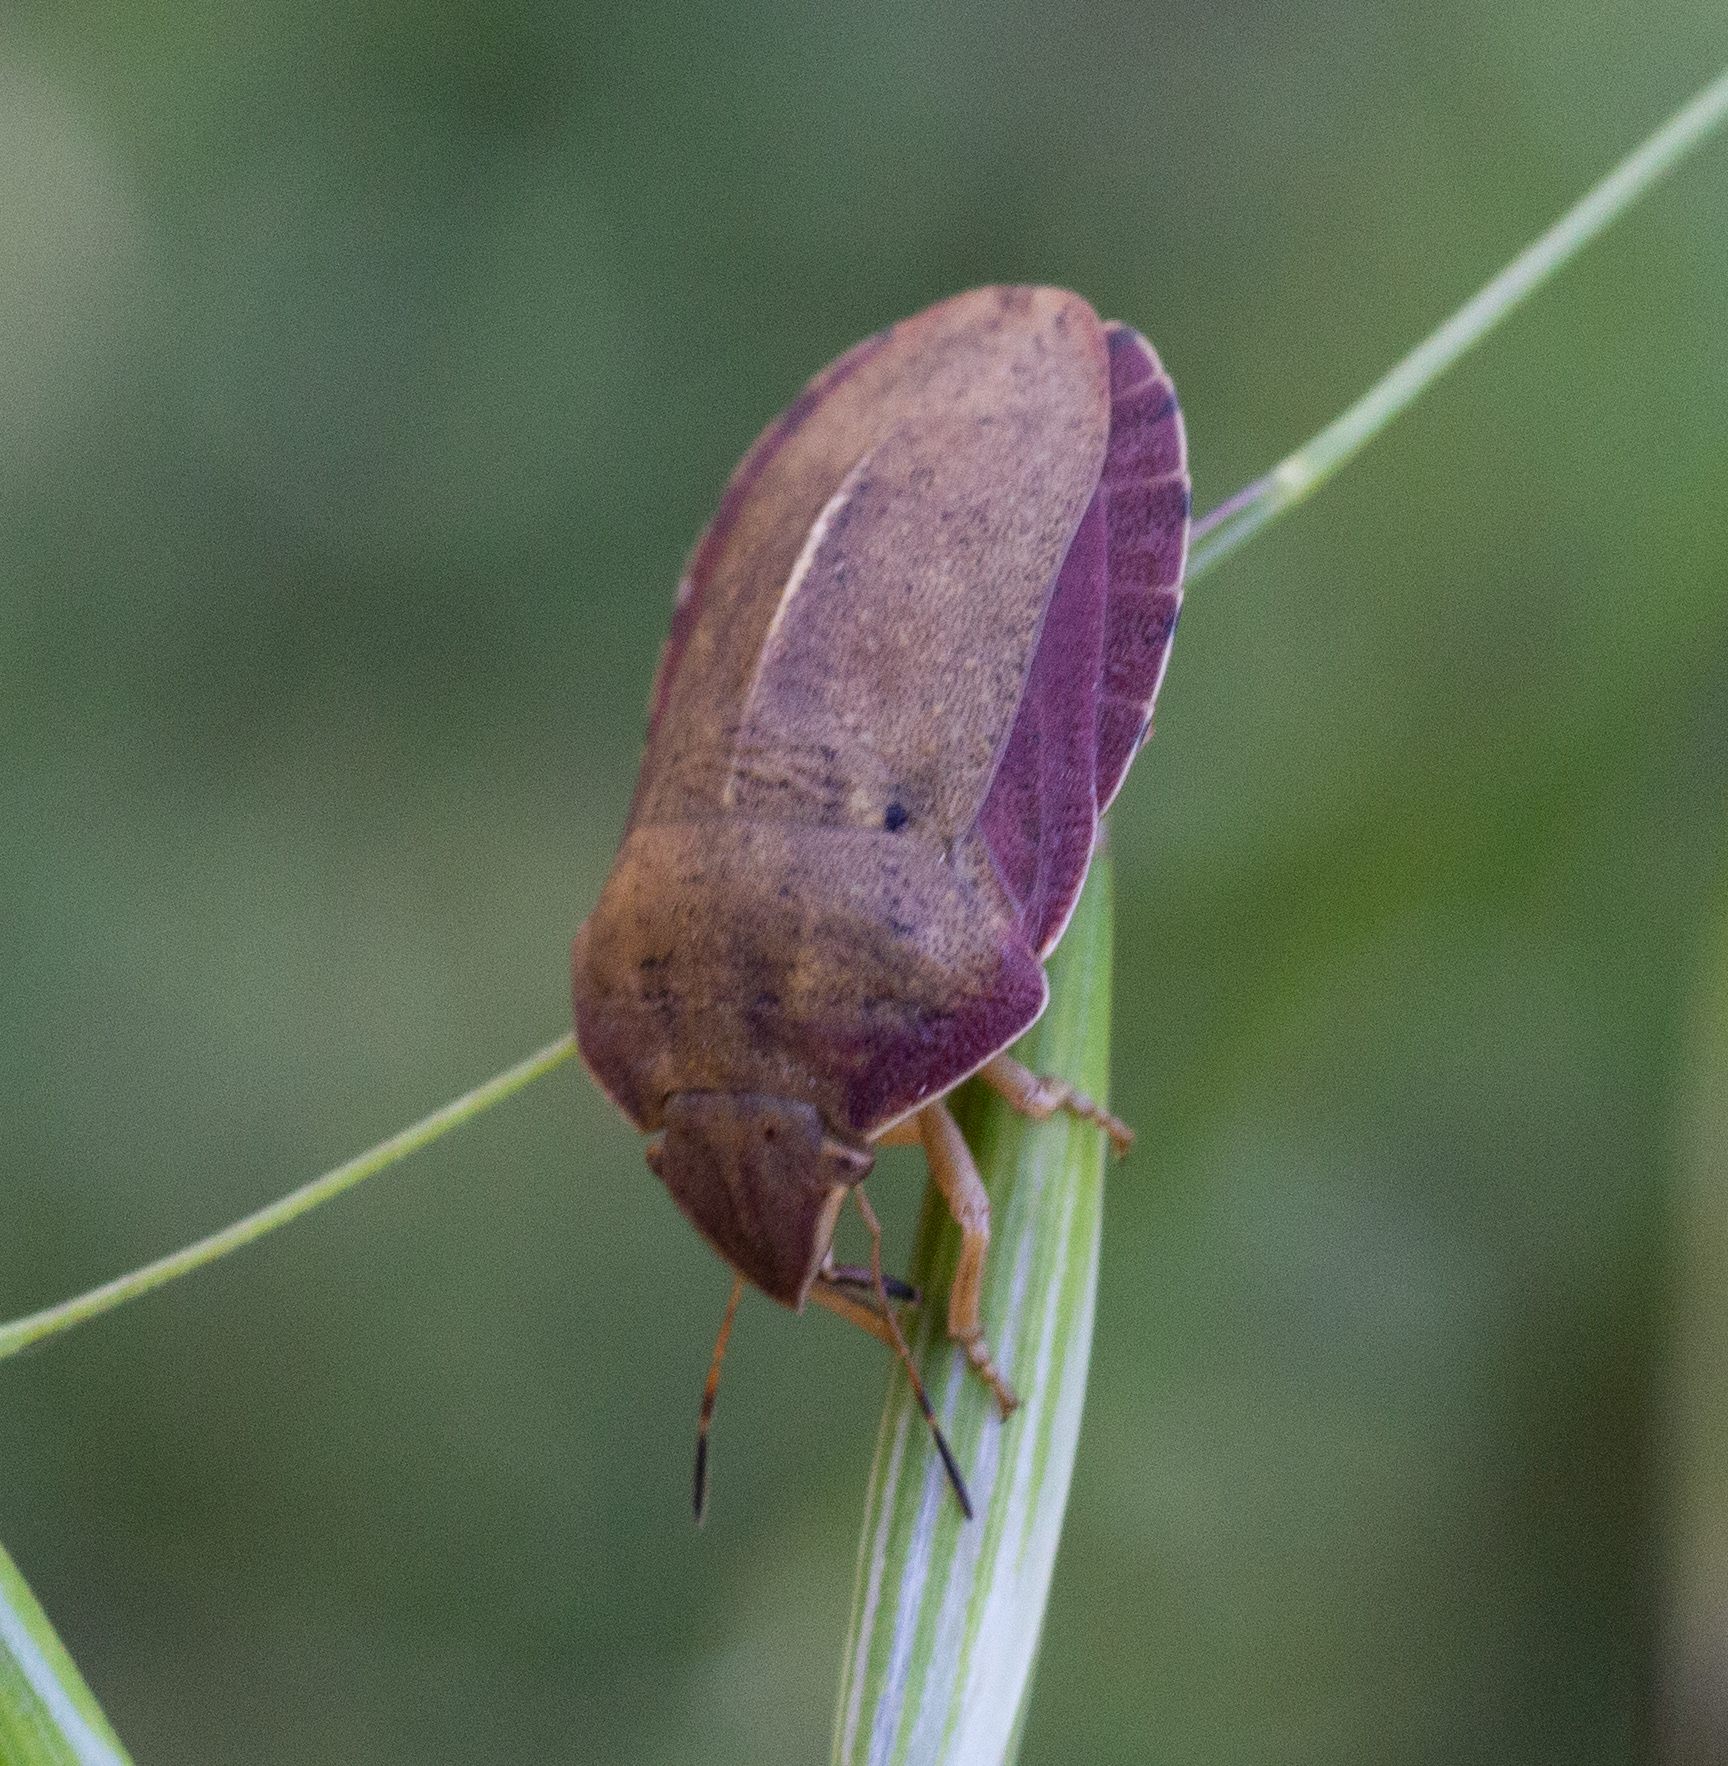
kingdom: Animalia
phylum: Arthropoda
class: Insecta
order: Hemiptera
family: Scutelleridae
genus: Eurygaster
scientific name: Eurygaster austriaca
